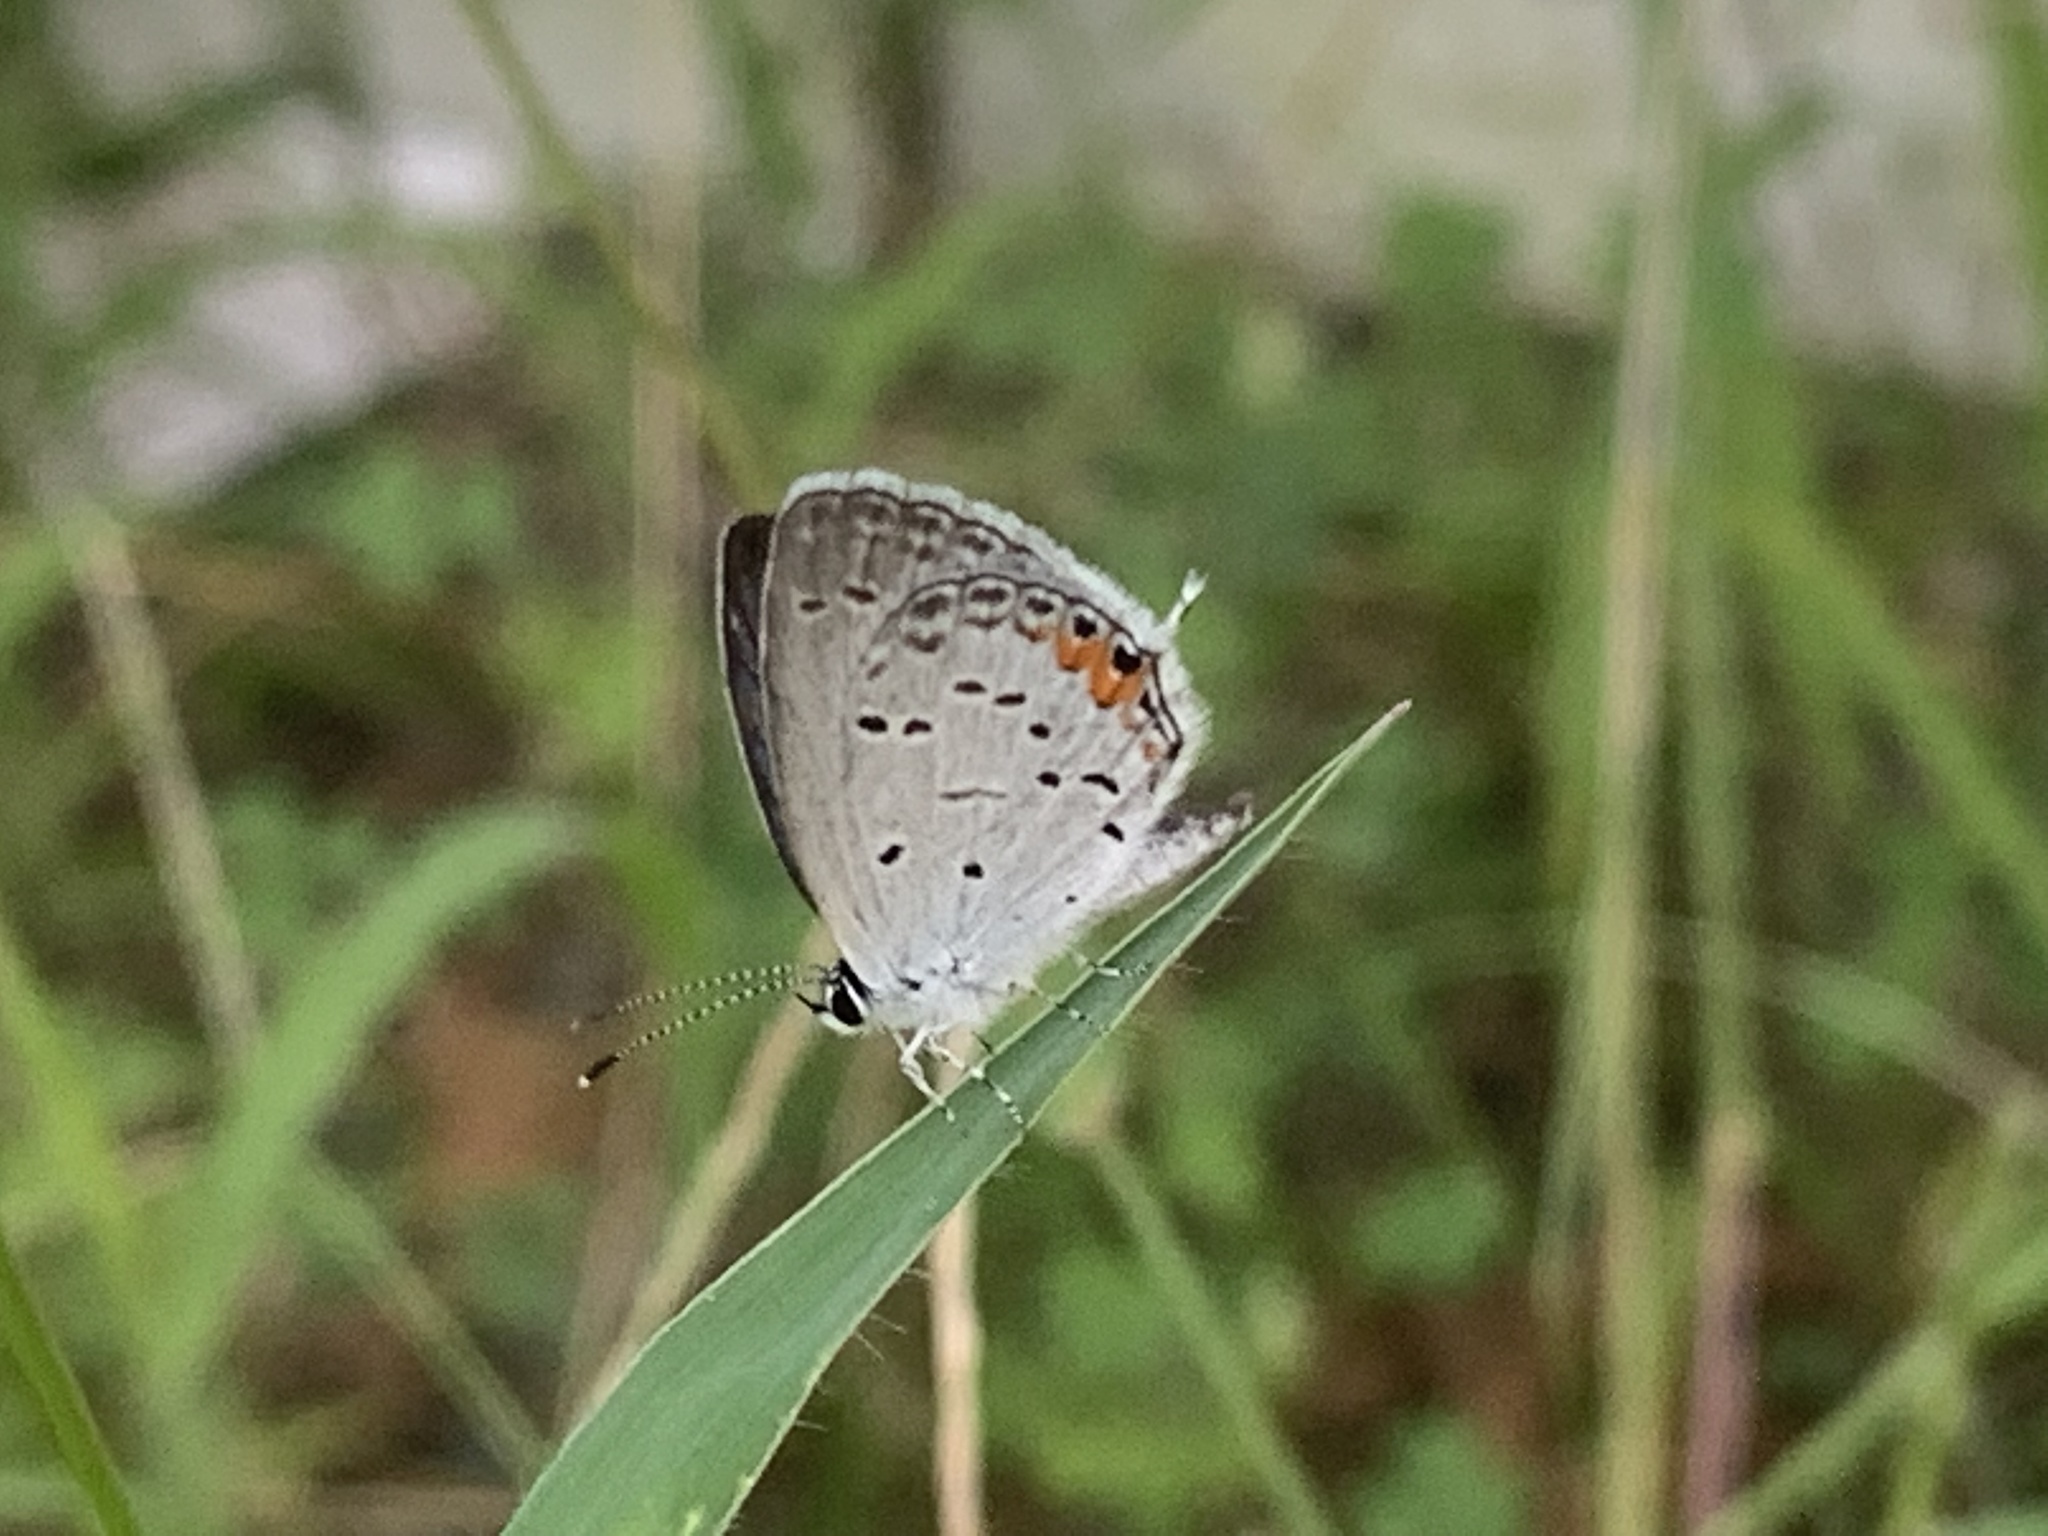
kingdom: Animalia
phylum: Arthropoda
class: Insecta
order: Lepidoptera
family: Lycaenidae
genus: Elkalyce
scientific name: Elkalyce comyntas
